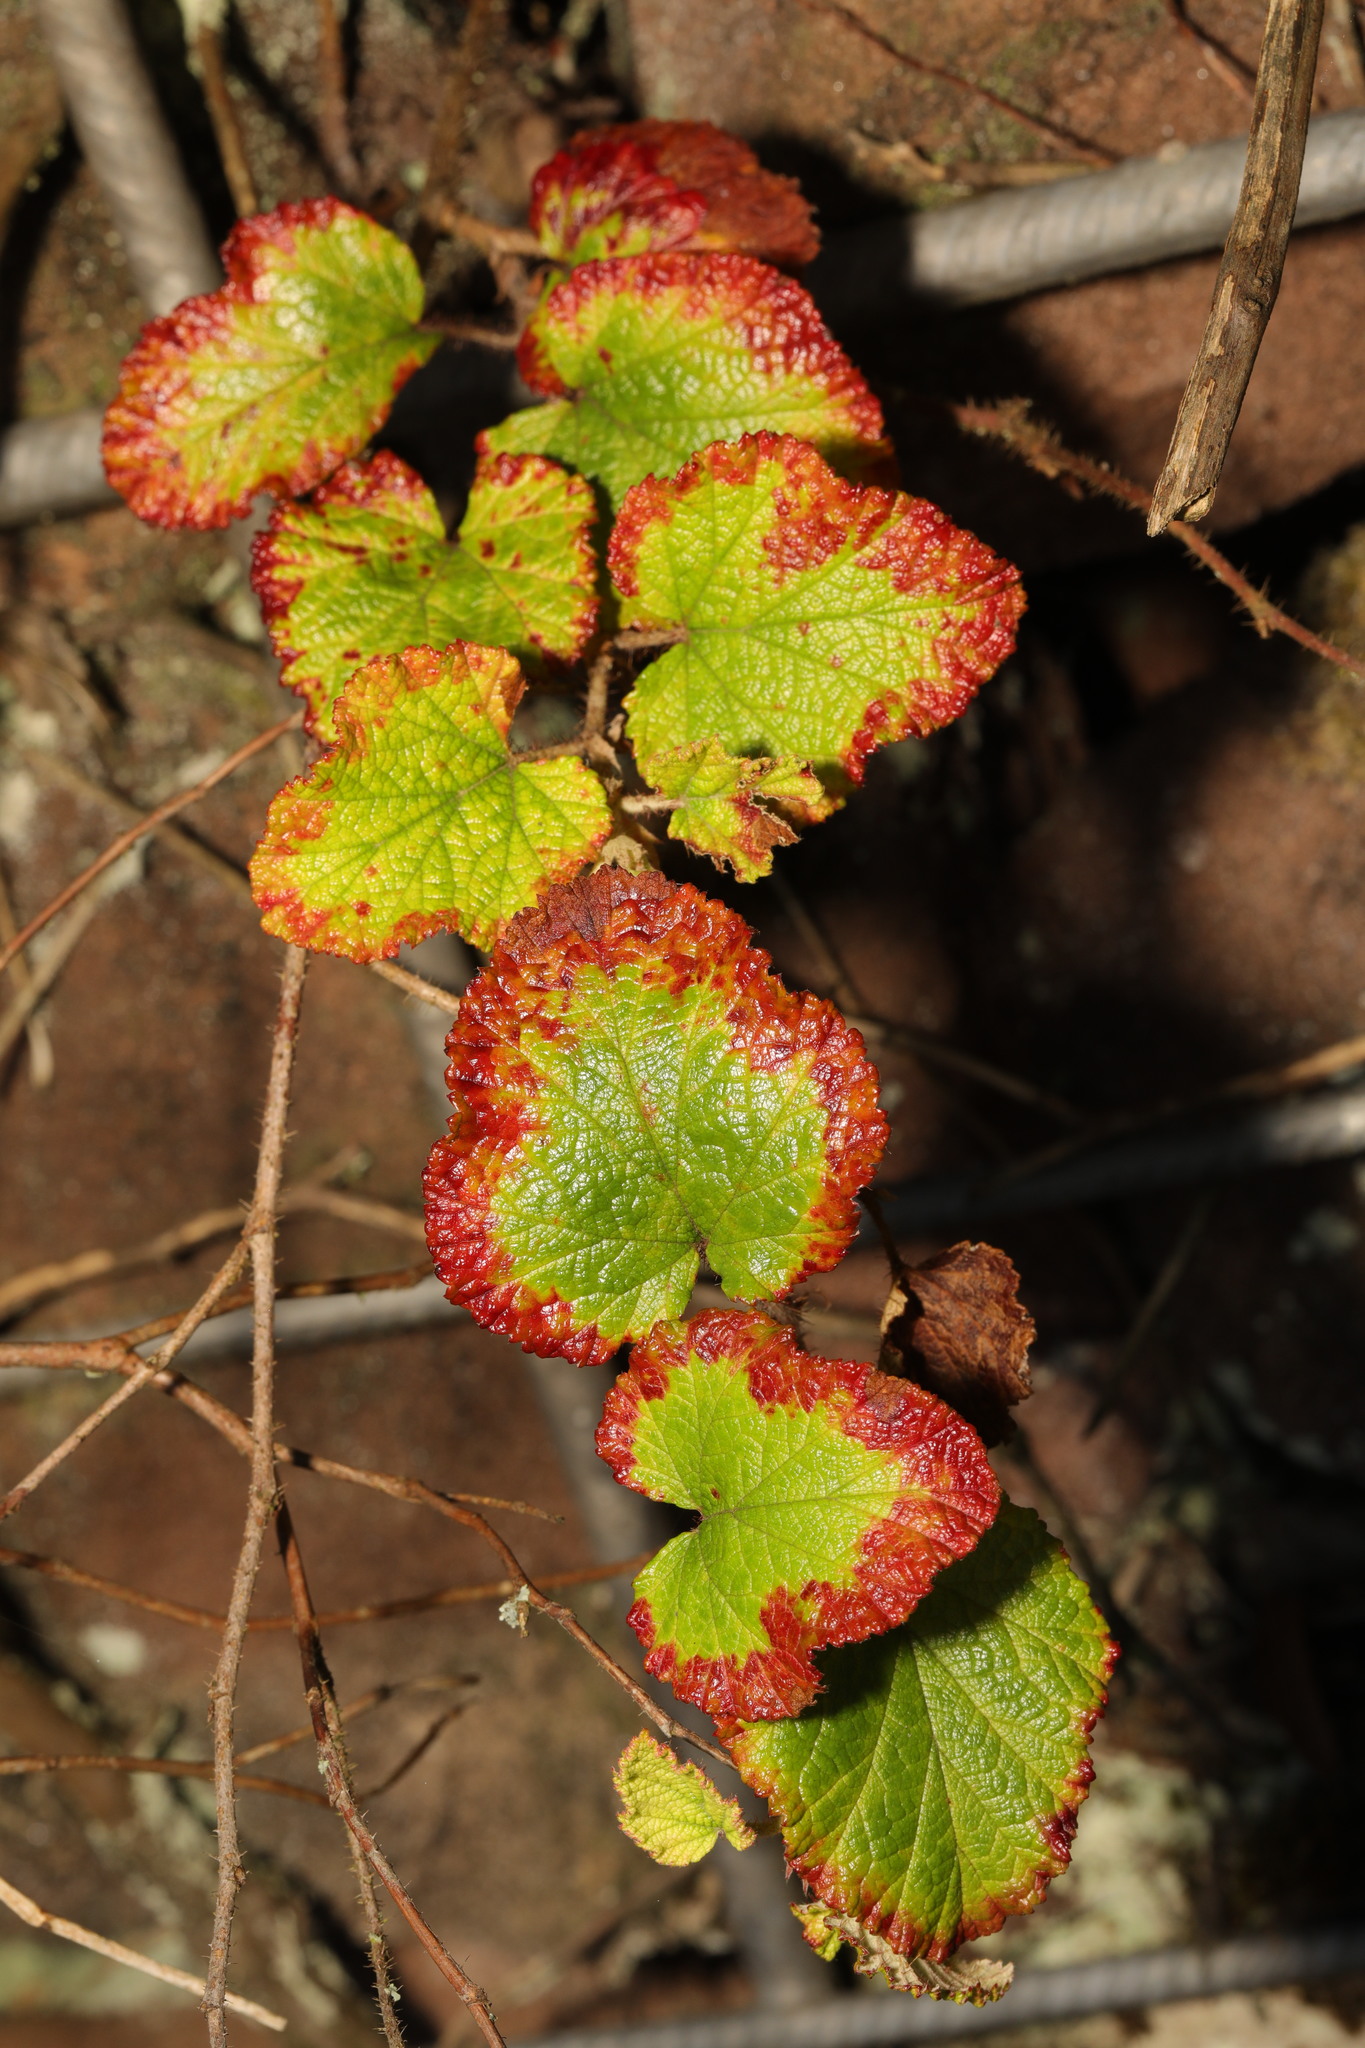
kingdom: Plantae
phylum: Tracheophyta
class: Magnoliopsida
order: Rosales
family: Rosaceae
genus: Rubus
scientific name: Rubus tricolor
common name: Chinese bramble
